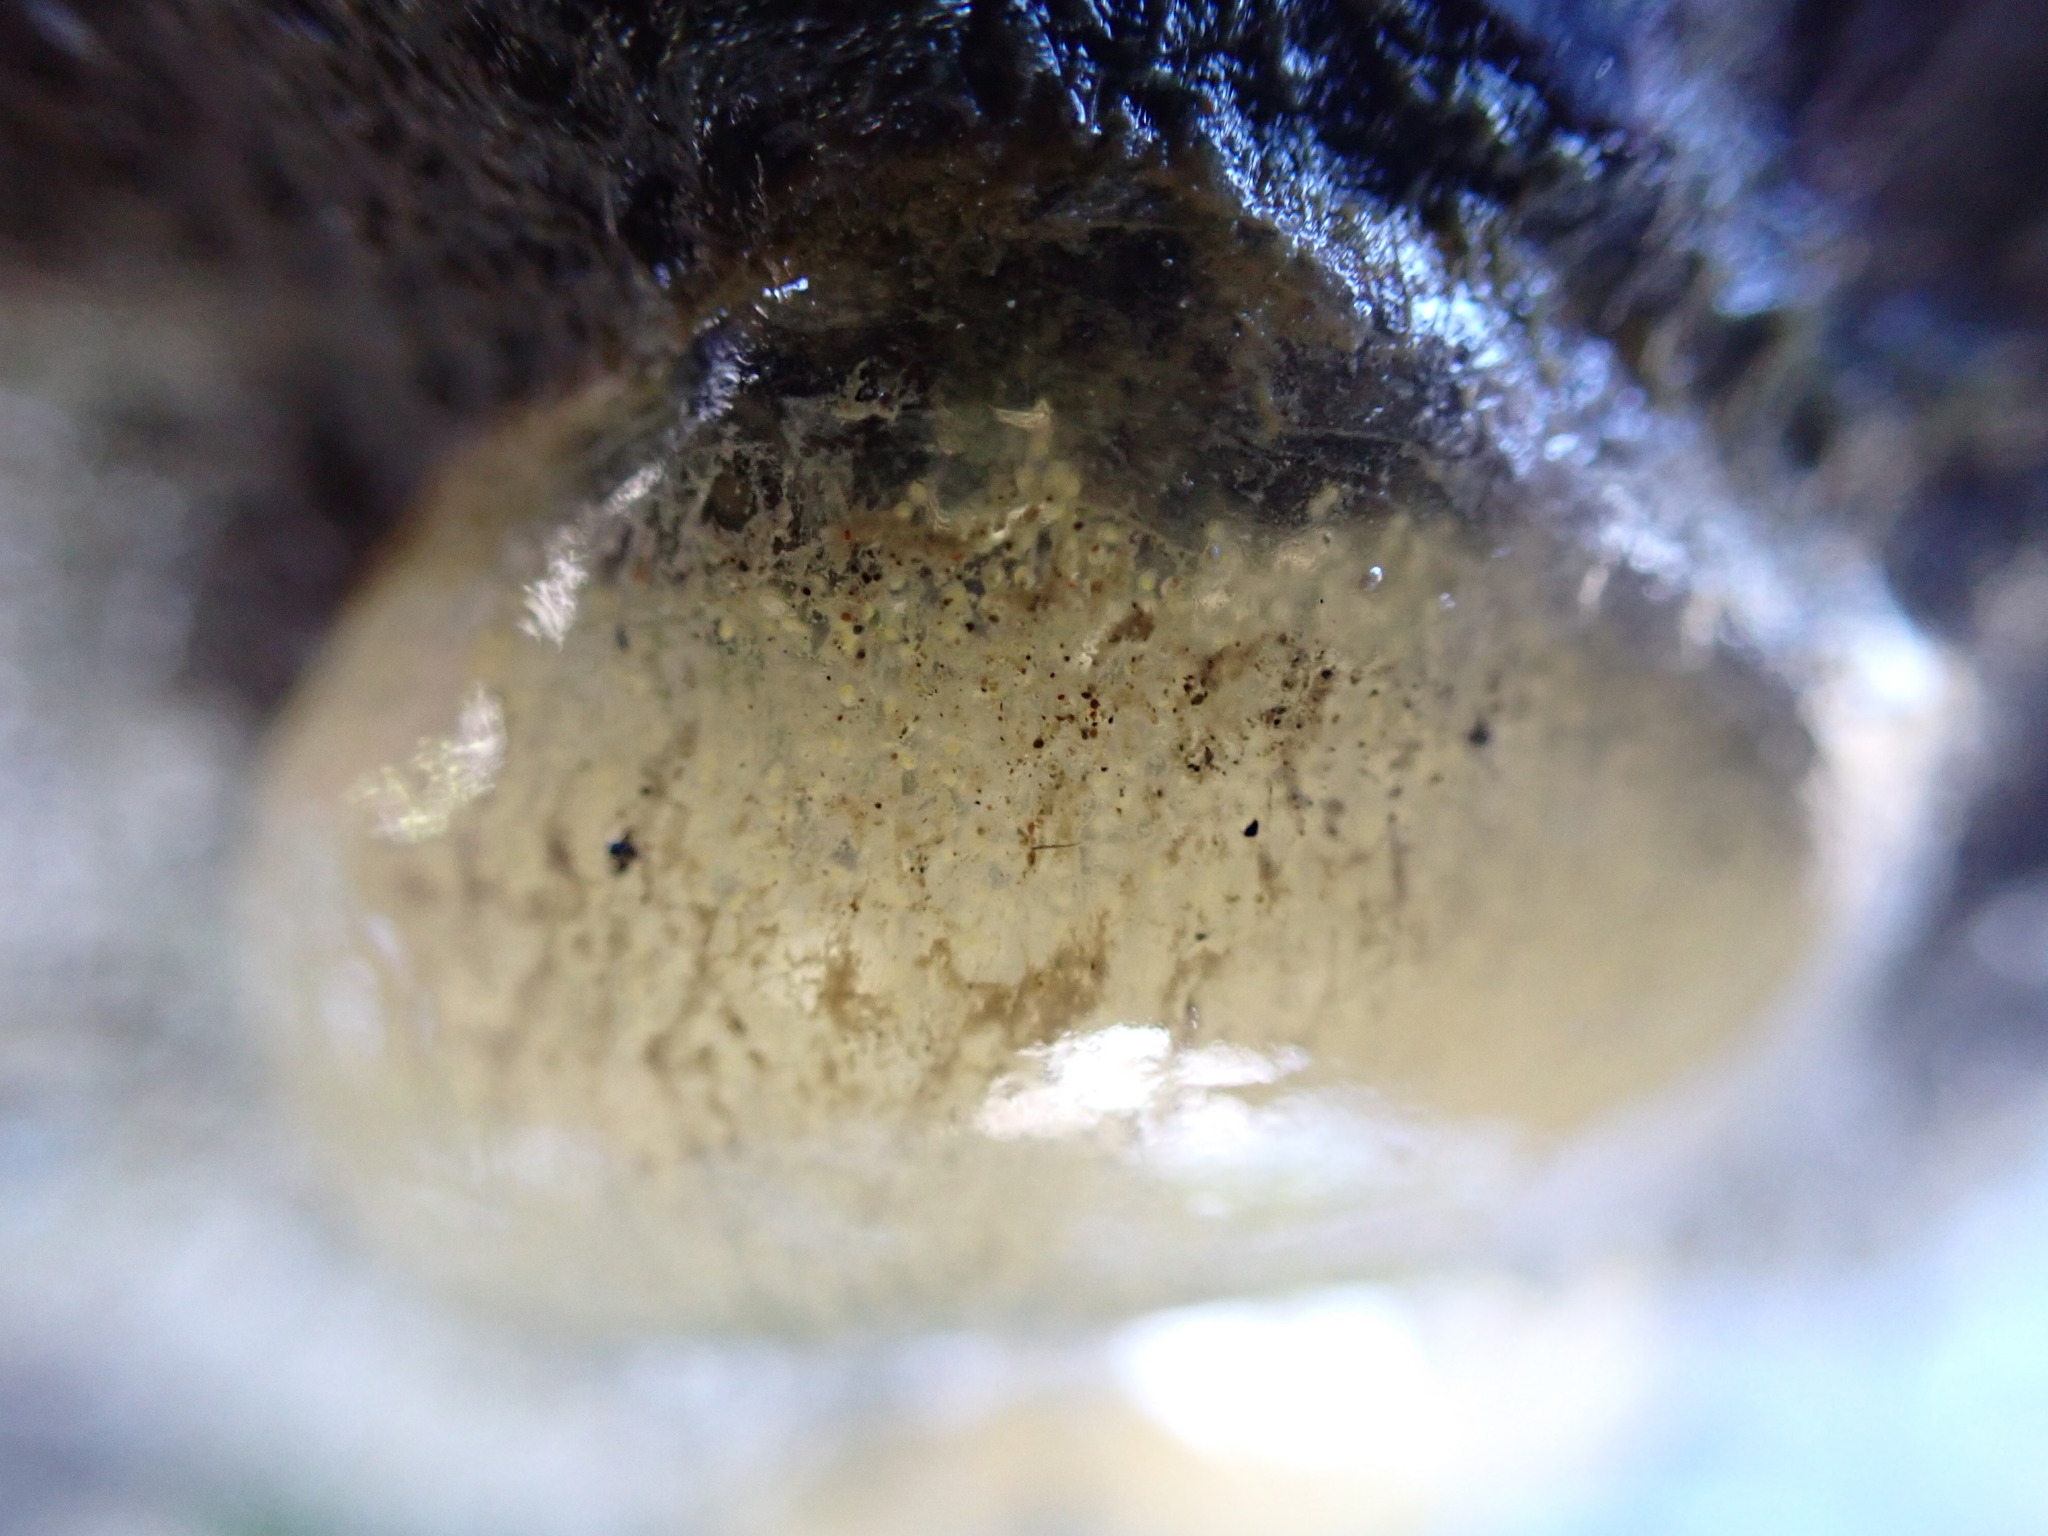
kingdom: Animalia
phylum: Mollusca
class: Gastropoda
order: Cephalaspidea
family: Haminoeidae
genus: Papawera
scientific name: Papawera zelandiae
